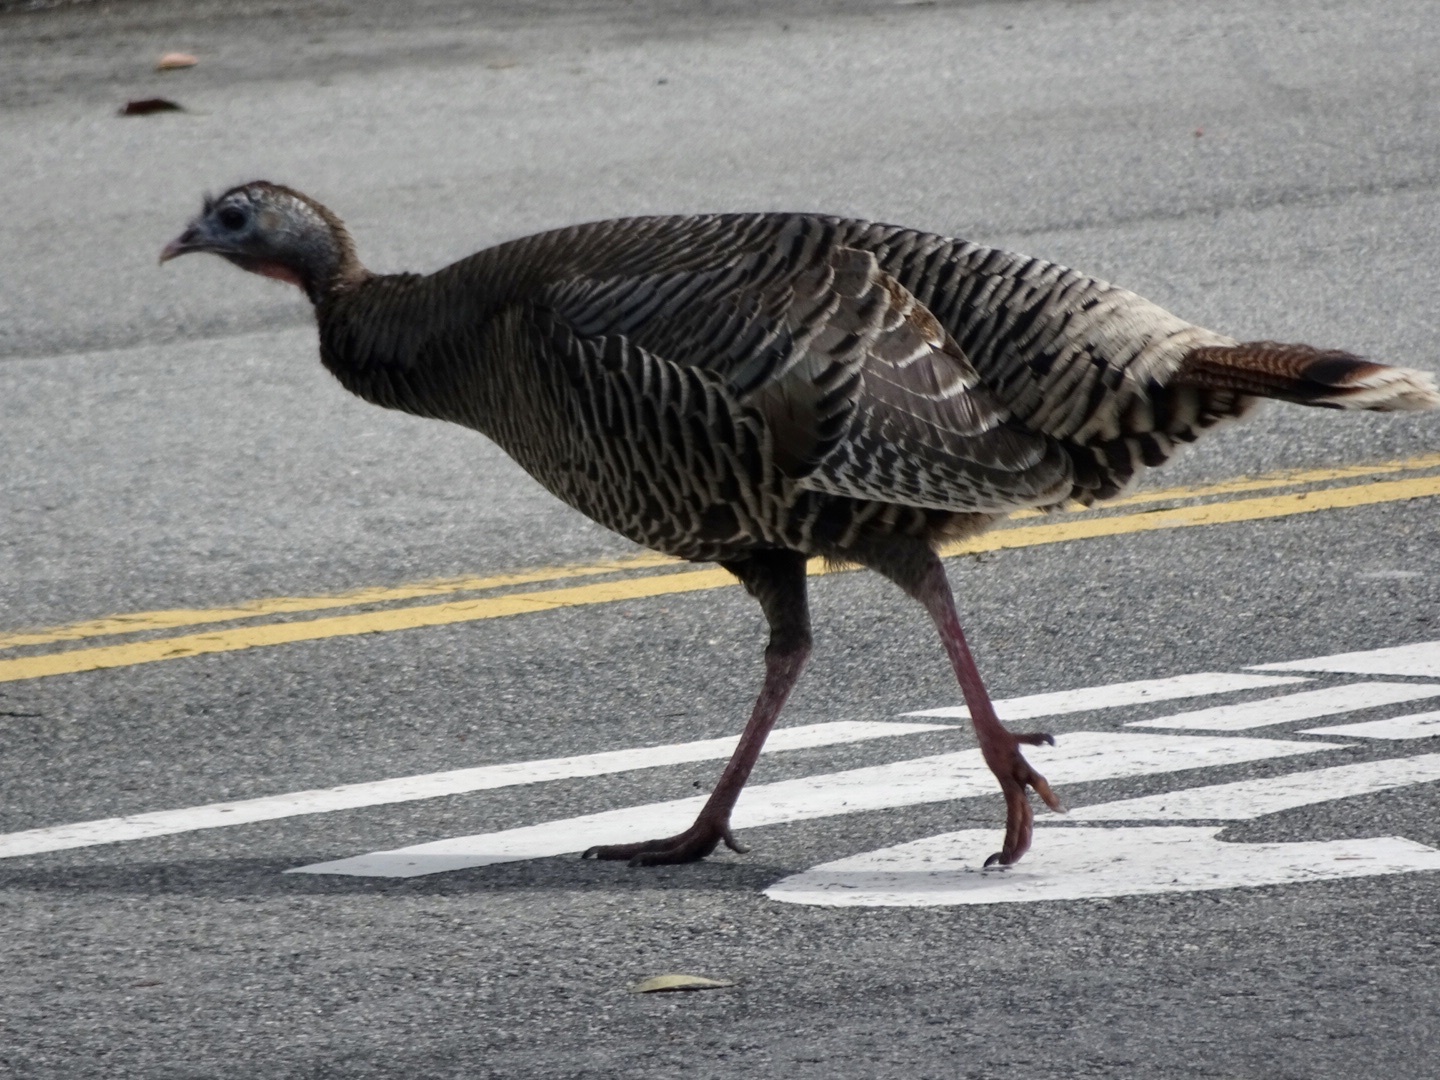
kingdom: Animalia
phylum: Chordata
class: Aves
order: Galliformes
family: Phasianidae
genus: Meleagris
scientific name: Meleagris gallopavo
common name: Wild turkey
